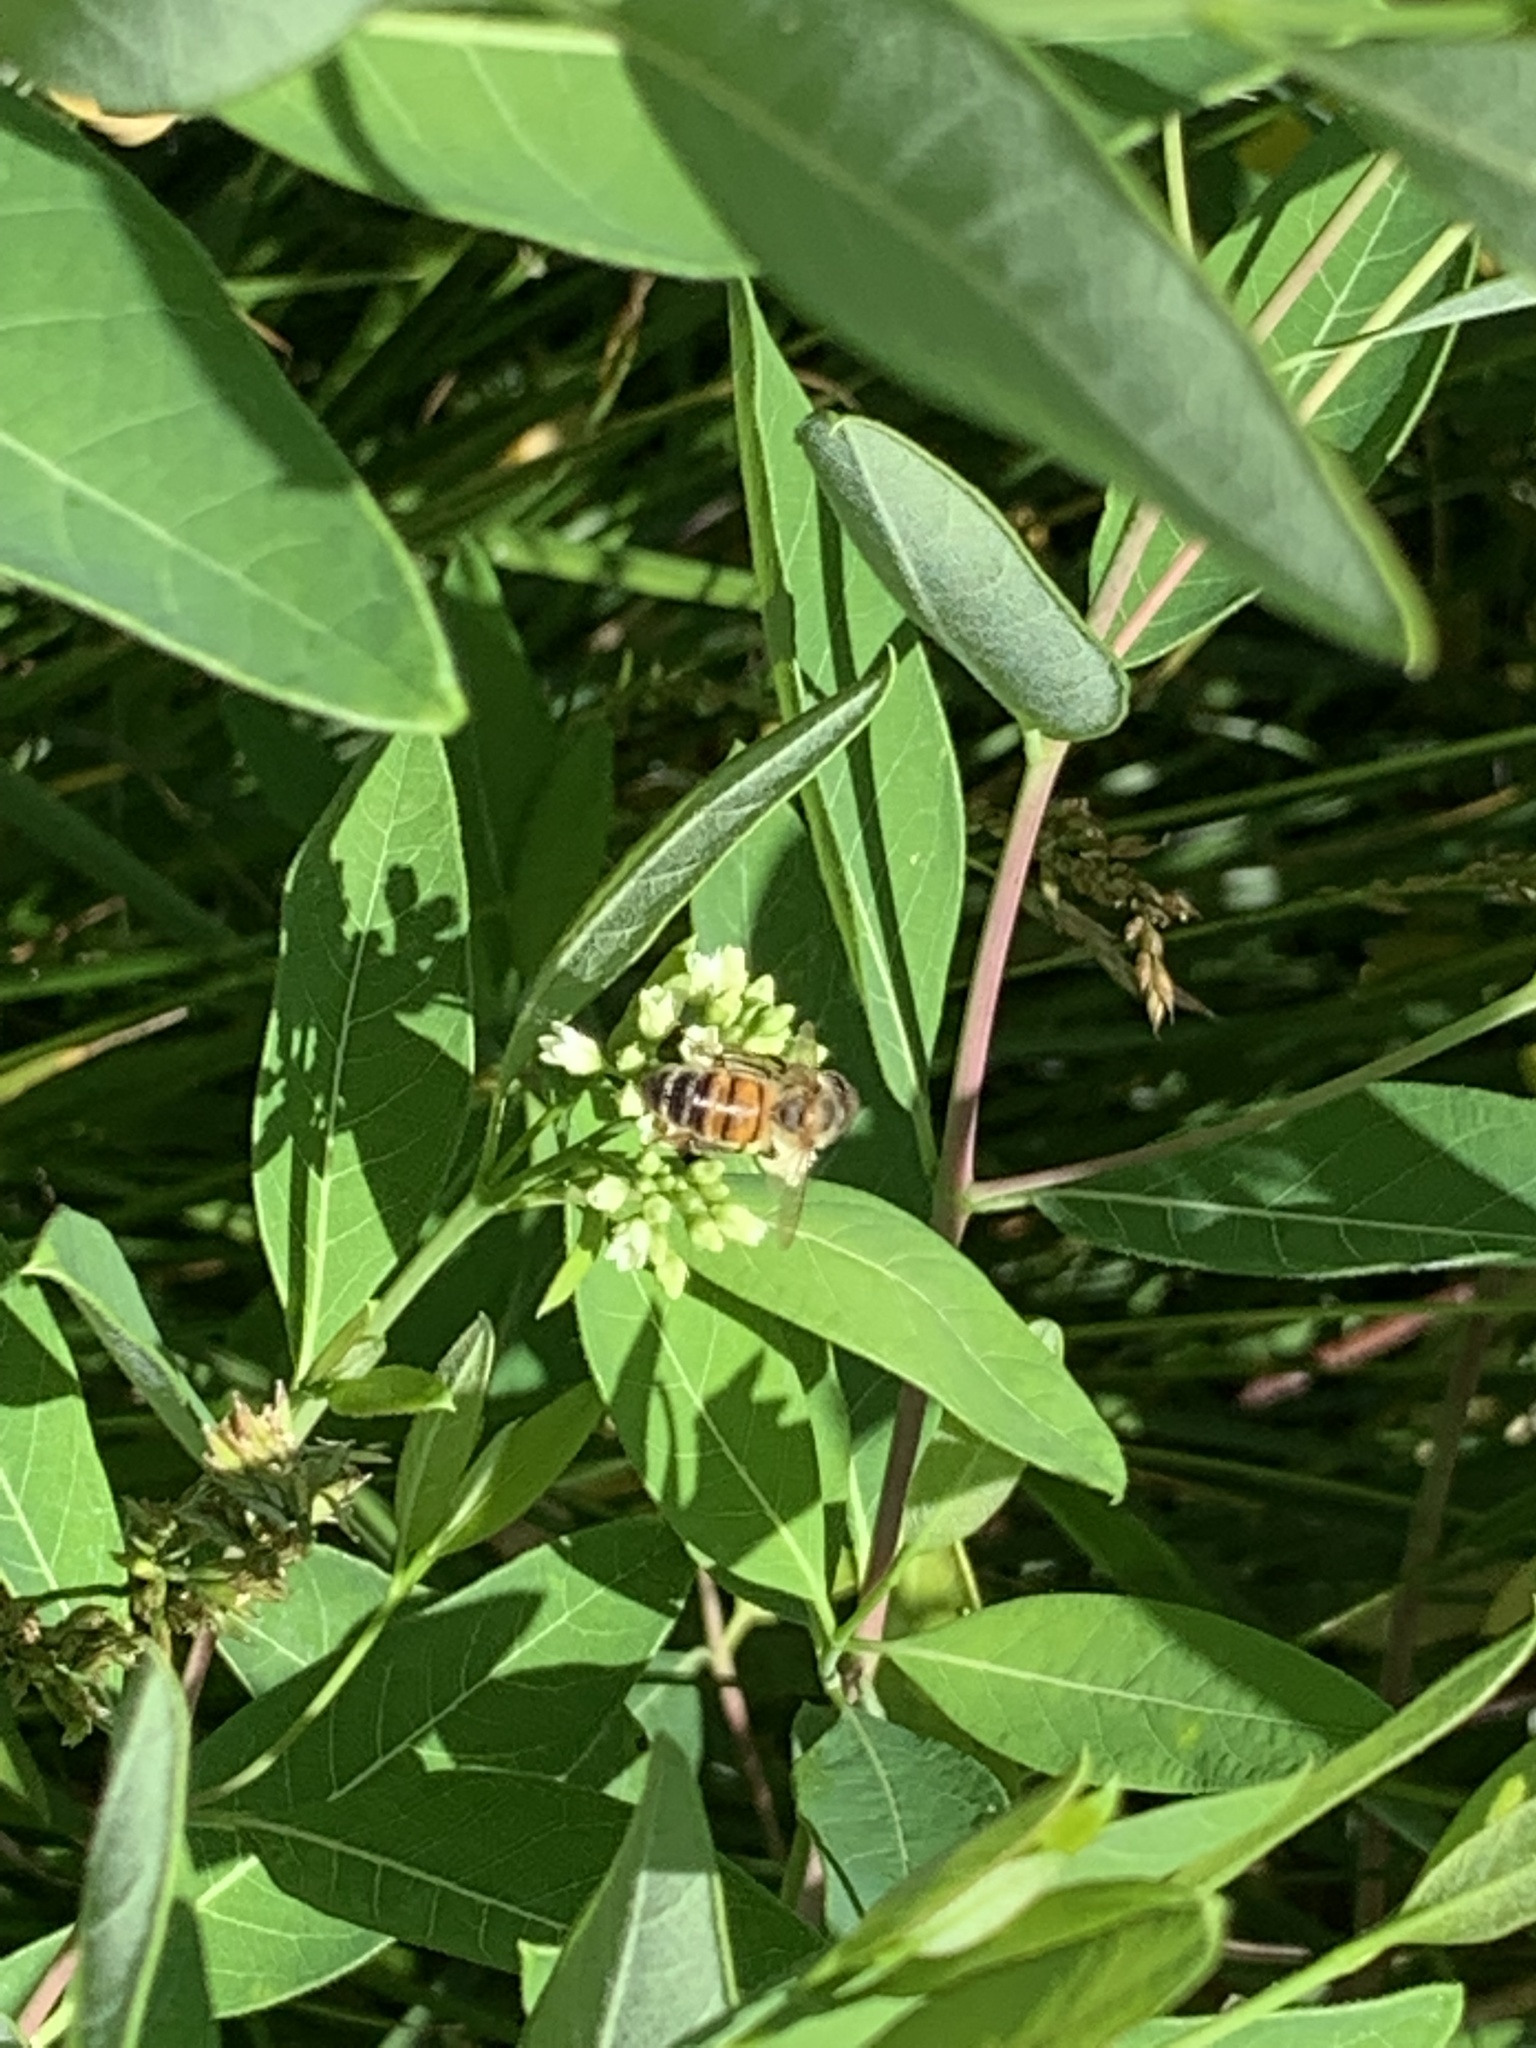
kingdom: Animalia
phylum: Arthropoda
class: Insecta
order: Hymenoptera
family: Apidae
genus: Apis
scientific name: Apis mellifera
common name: Honey bee
